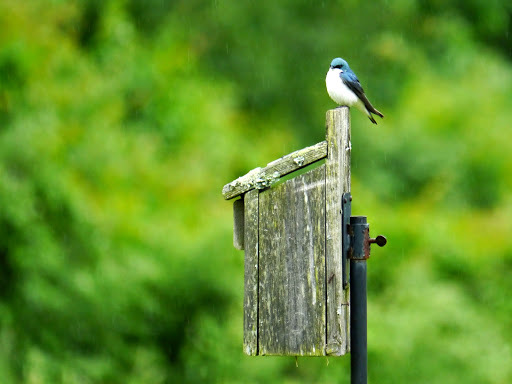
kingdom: Animalia
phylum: Chordata
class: Aves
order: Passeriformes
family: Hirundinidae
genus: Tachycineta
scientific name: Tachycineta bicolor
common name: Tree swallow
